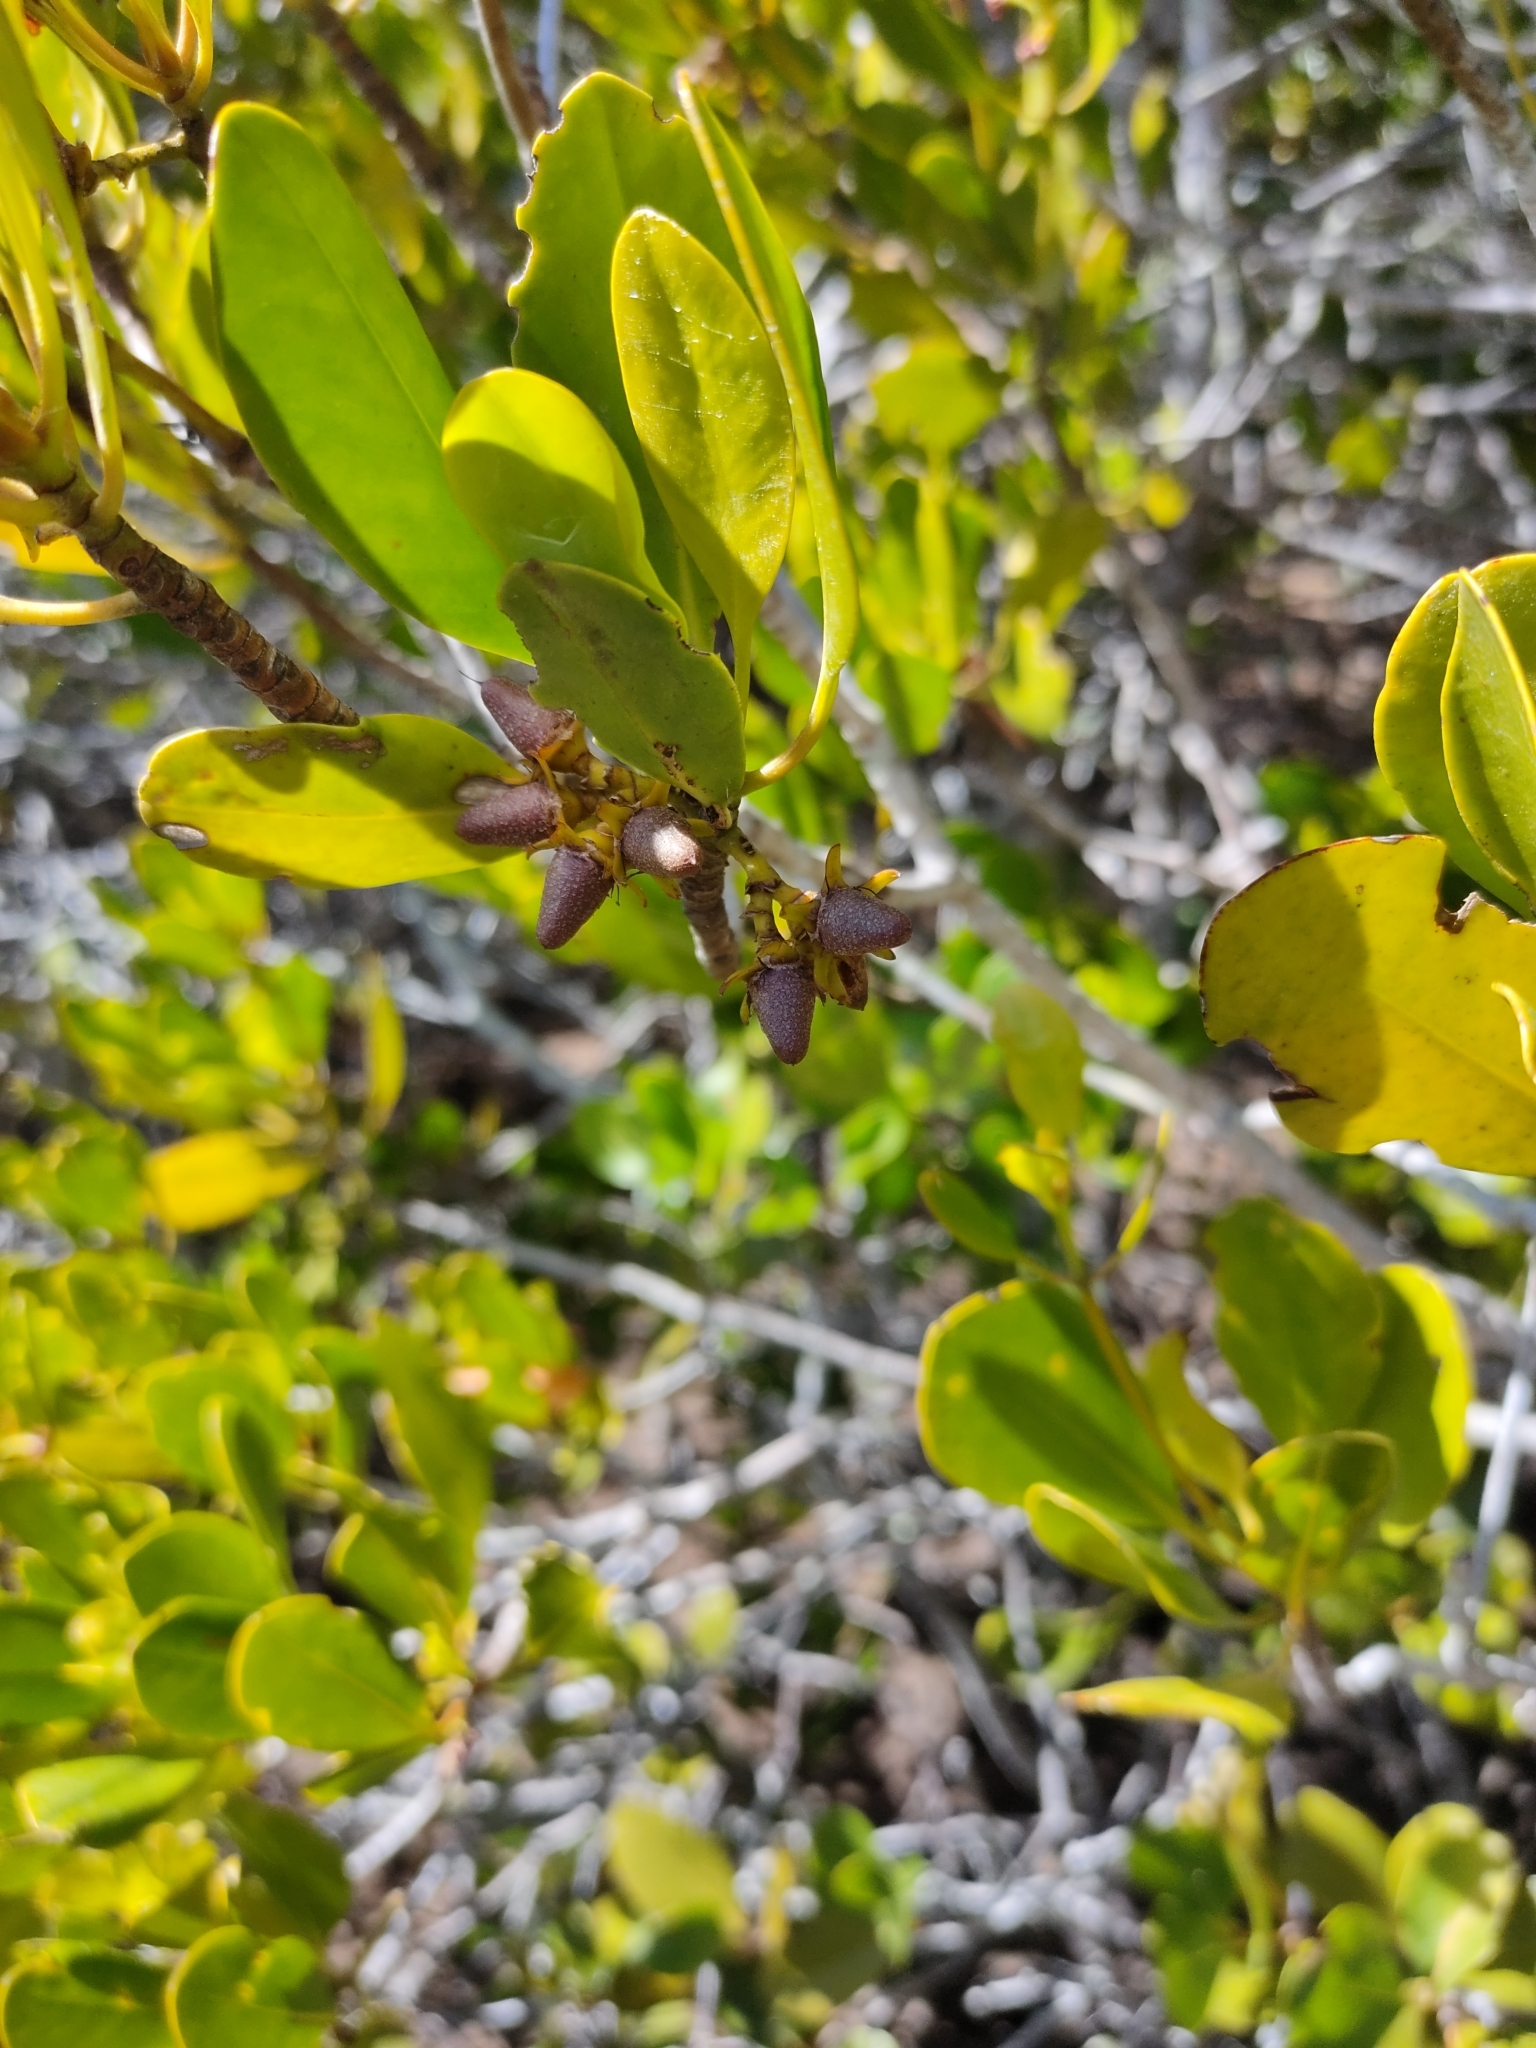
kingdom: Plantae
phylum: Tracheophyta
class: Magnoliopsida
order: Malpighiales
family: Rhizophoraceae
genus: Ceriops
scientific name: Ceriops australis
